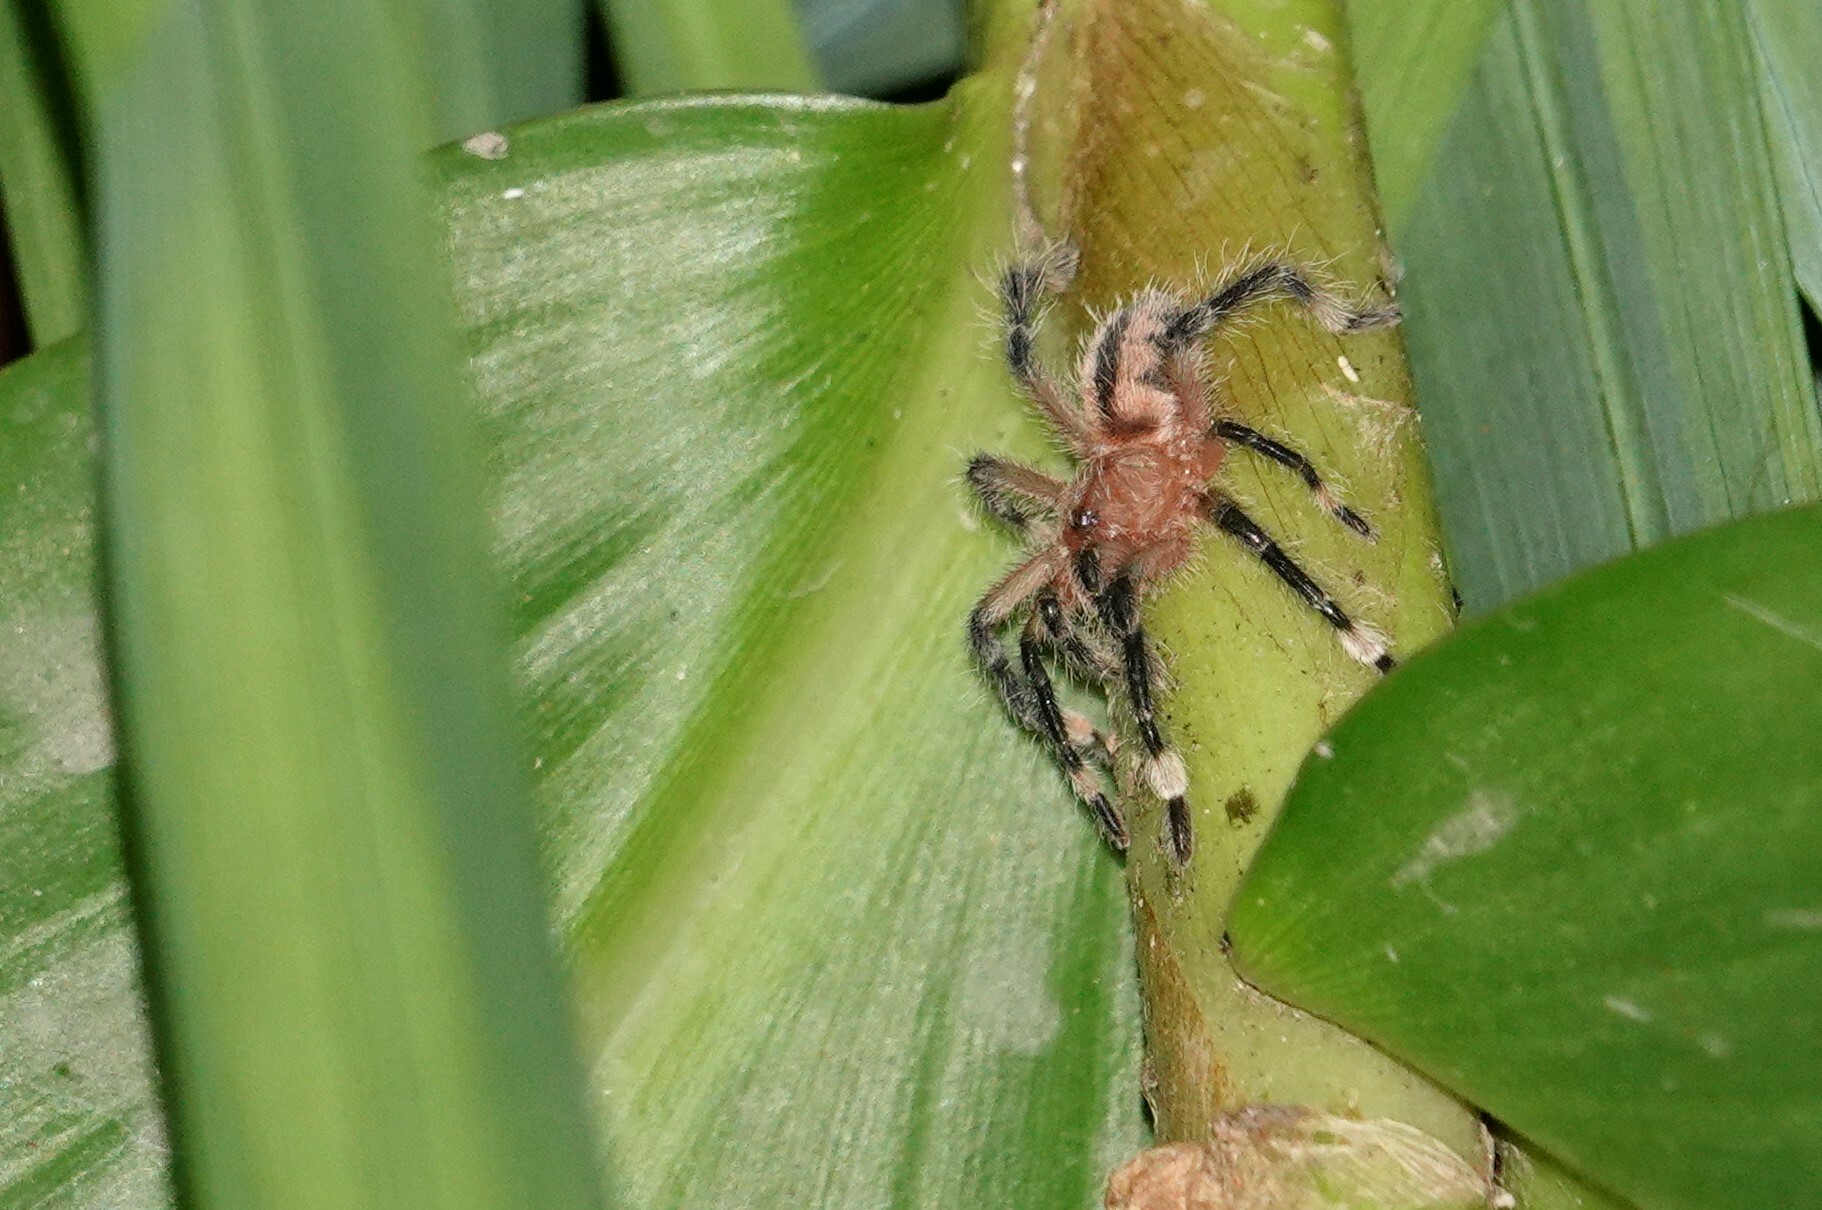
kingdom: Animalia
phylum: Arthropoda
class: Arachnida
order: Araneae
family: Theraphosidae
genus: Kankuamo
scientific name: Kankuamo marquezi
